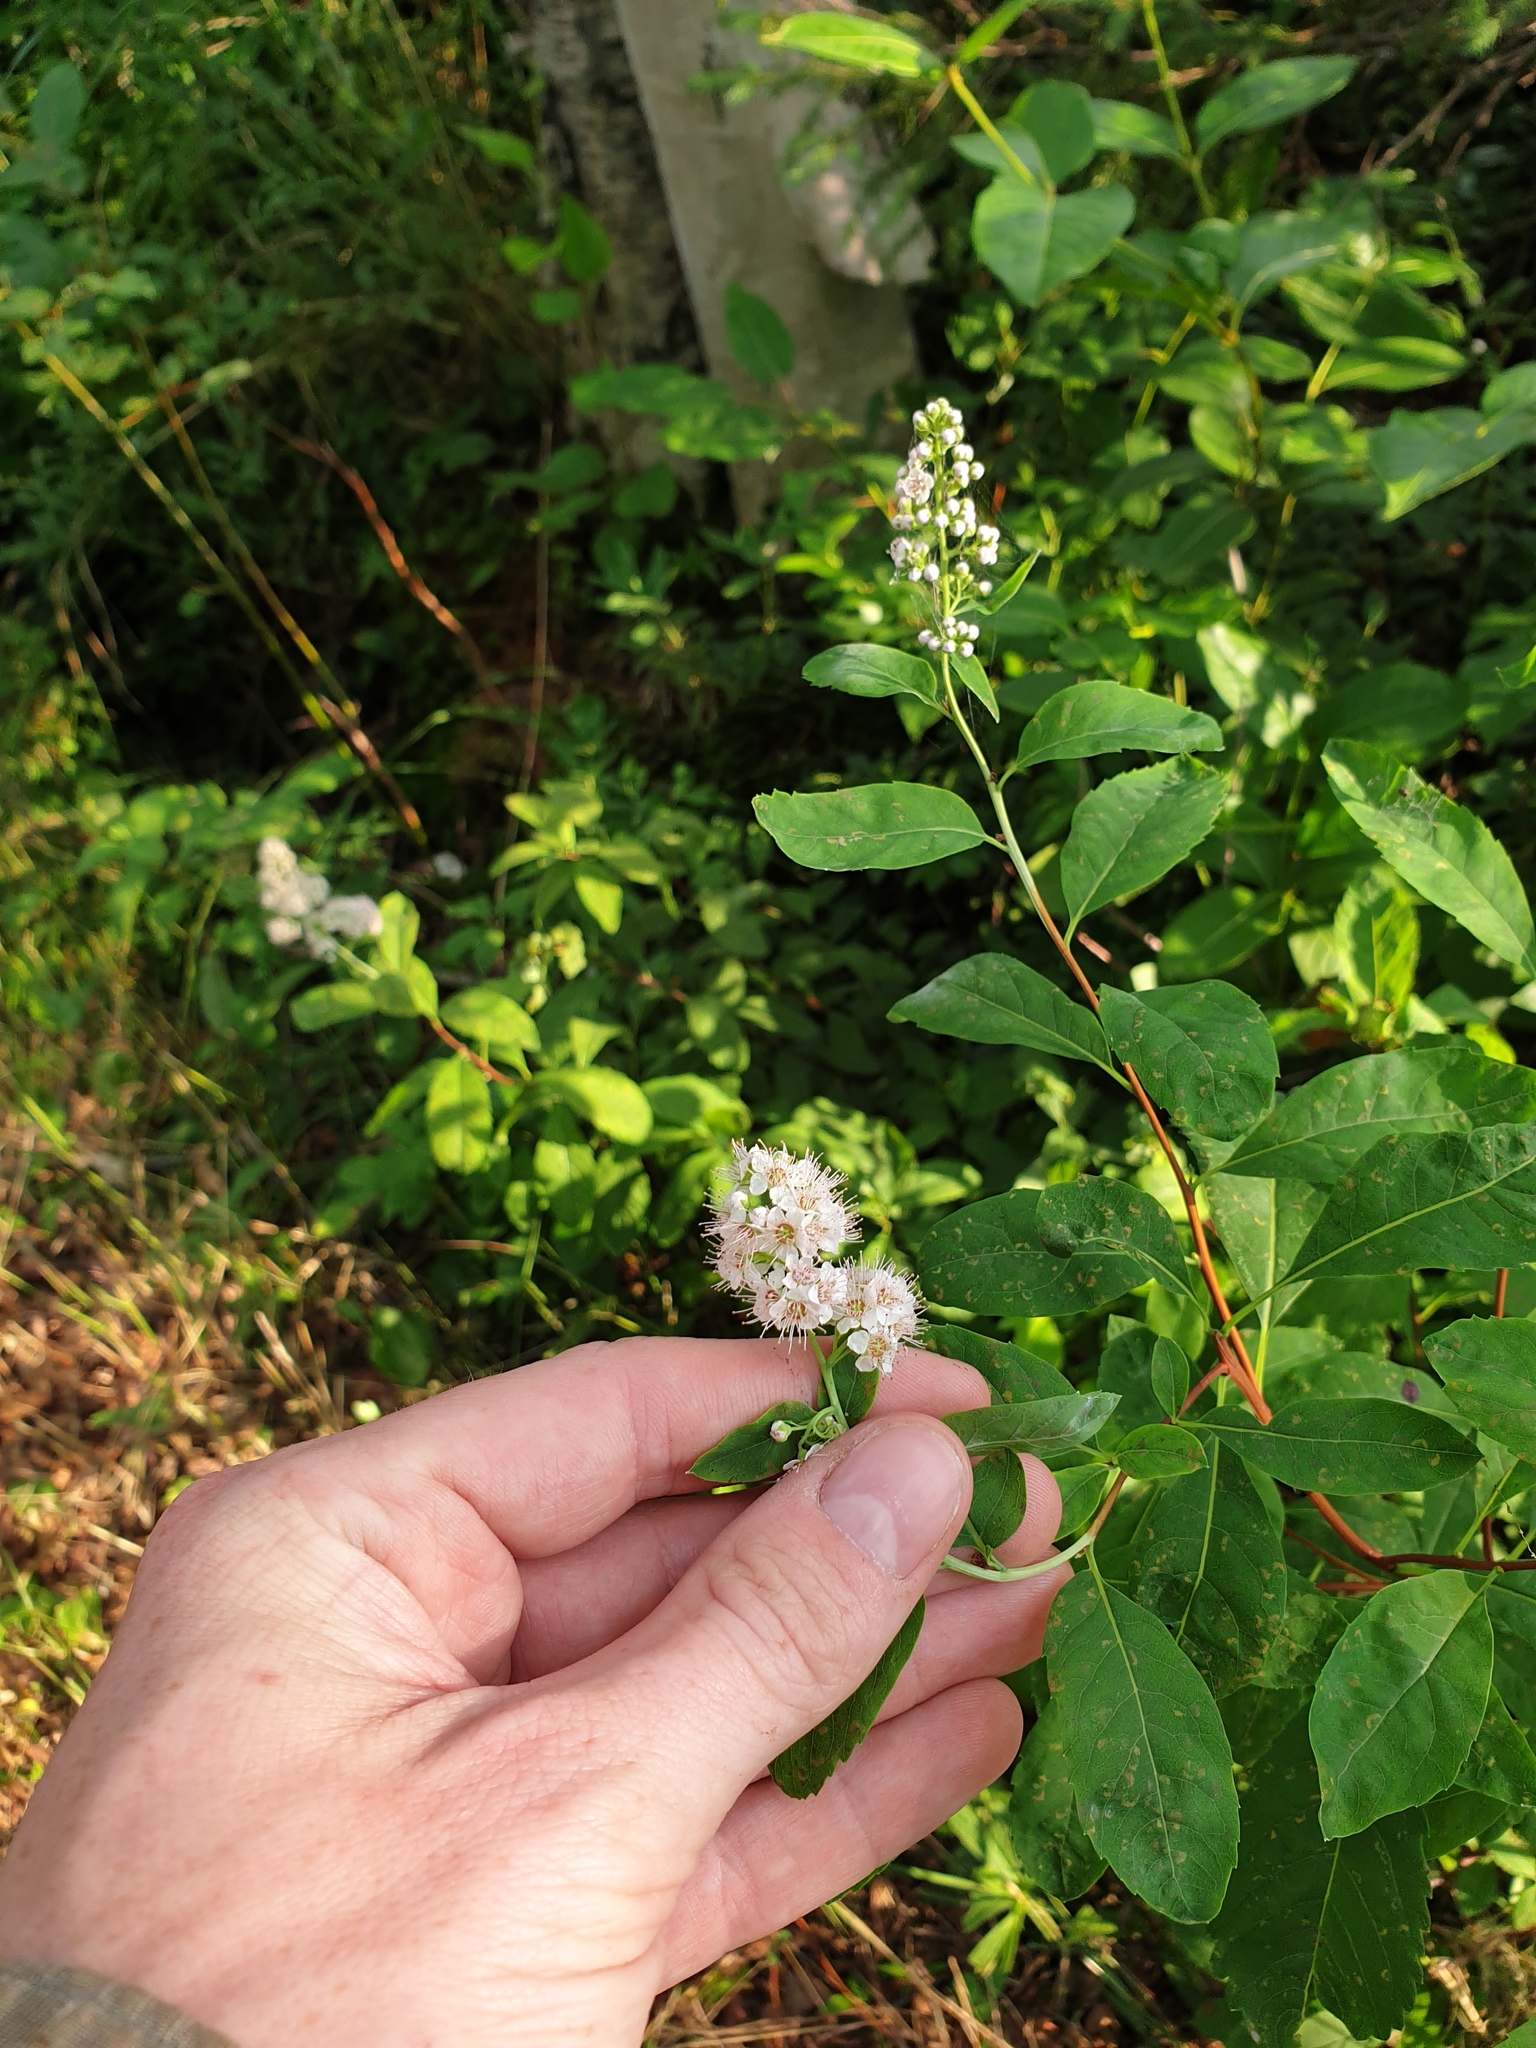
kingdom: Plantae
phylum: Tracheophyta
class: Magnoliopsida
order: Rosales
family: Rosaceae
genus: Spiraea
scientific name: Spiraea alba
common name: Pale bridewort
